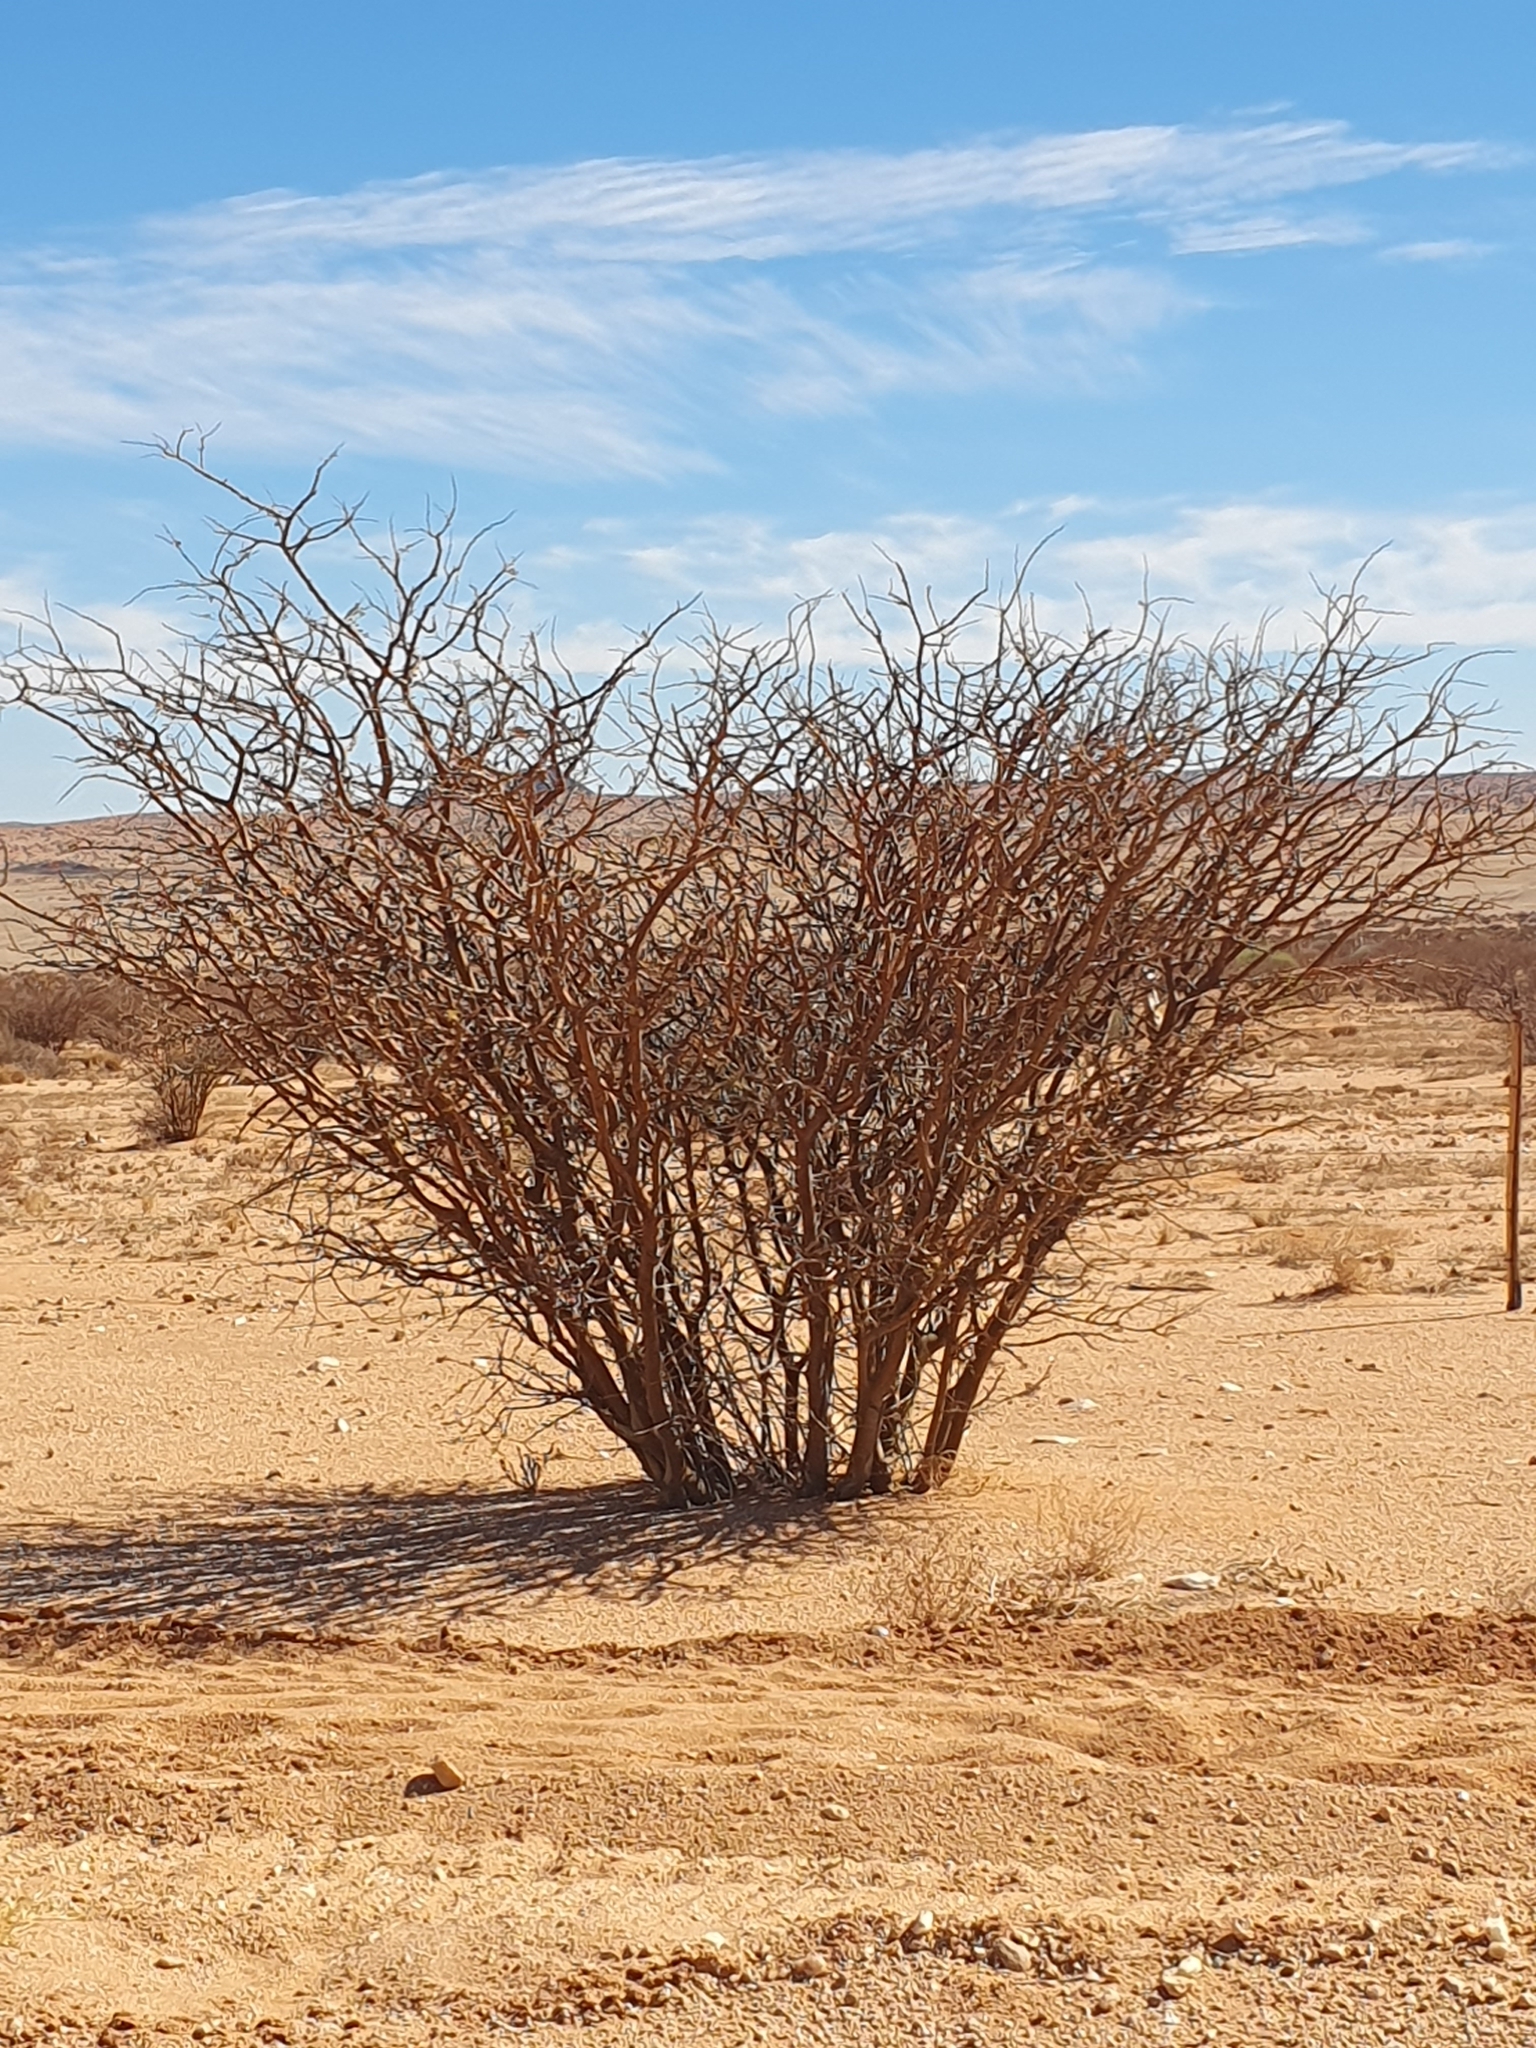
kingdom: Plantae
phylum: Tracheophyta
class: Magnoliopsida
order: Fabales
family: Fabaceae
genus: Senegalia
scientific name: Senegalia mellifera
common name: Hookthorn
